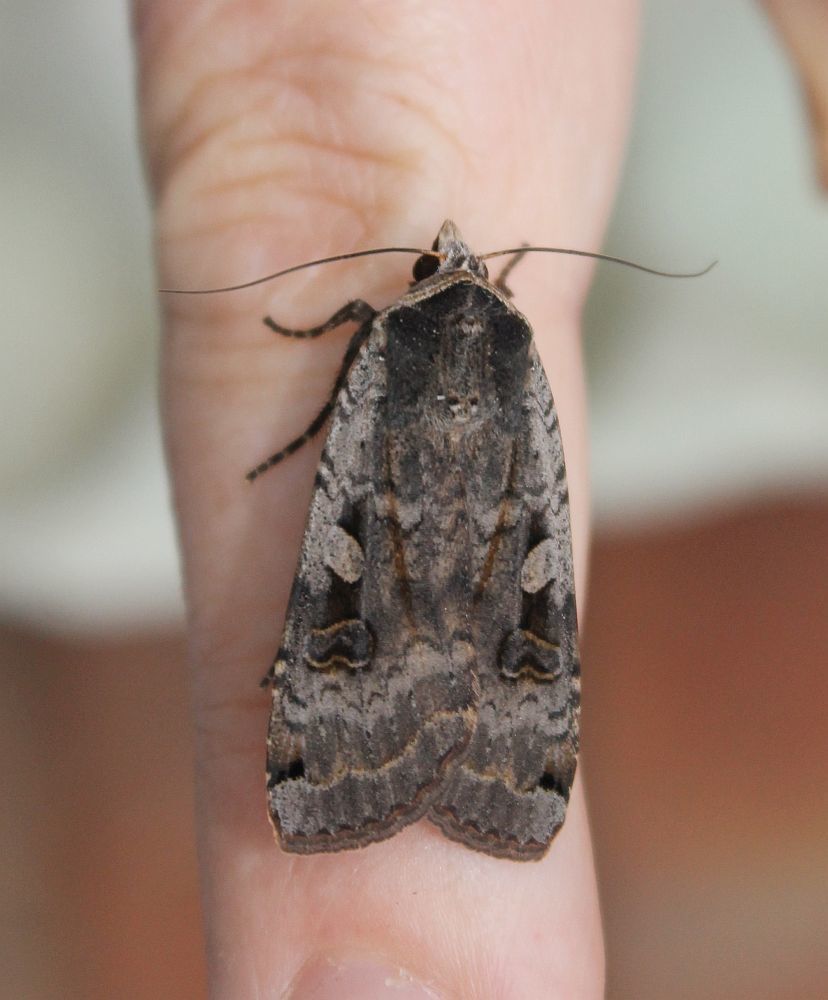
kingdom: Animalia
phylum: Arthropoda
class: Insecta
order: Lepidoptera
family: Noctuidae
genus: Noctua
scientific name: Noctua pronuba
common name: Large yellow underwing
